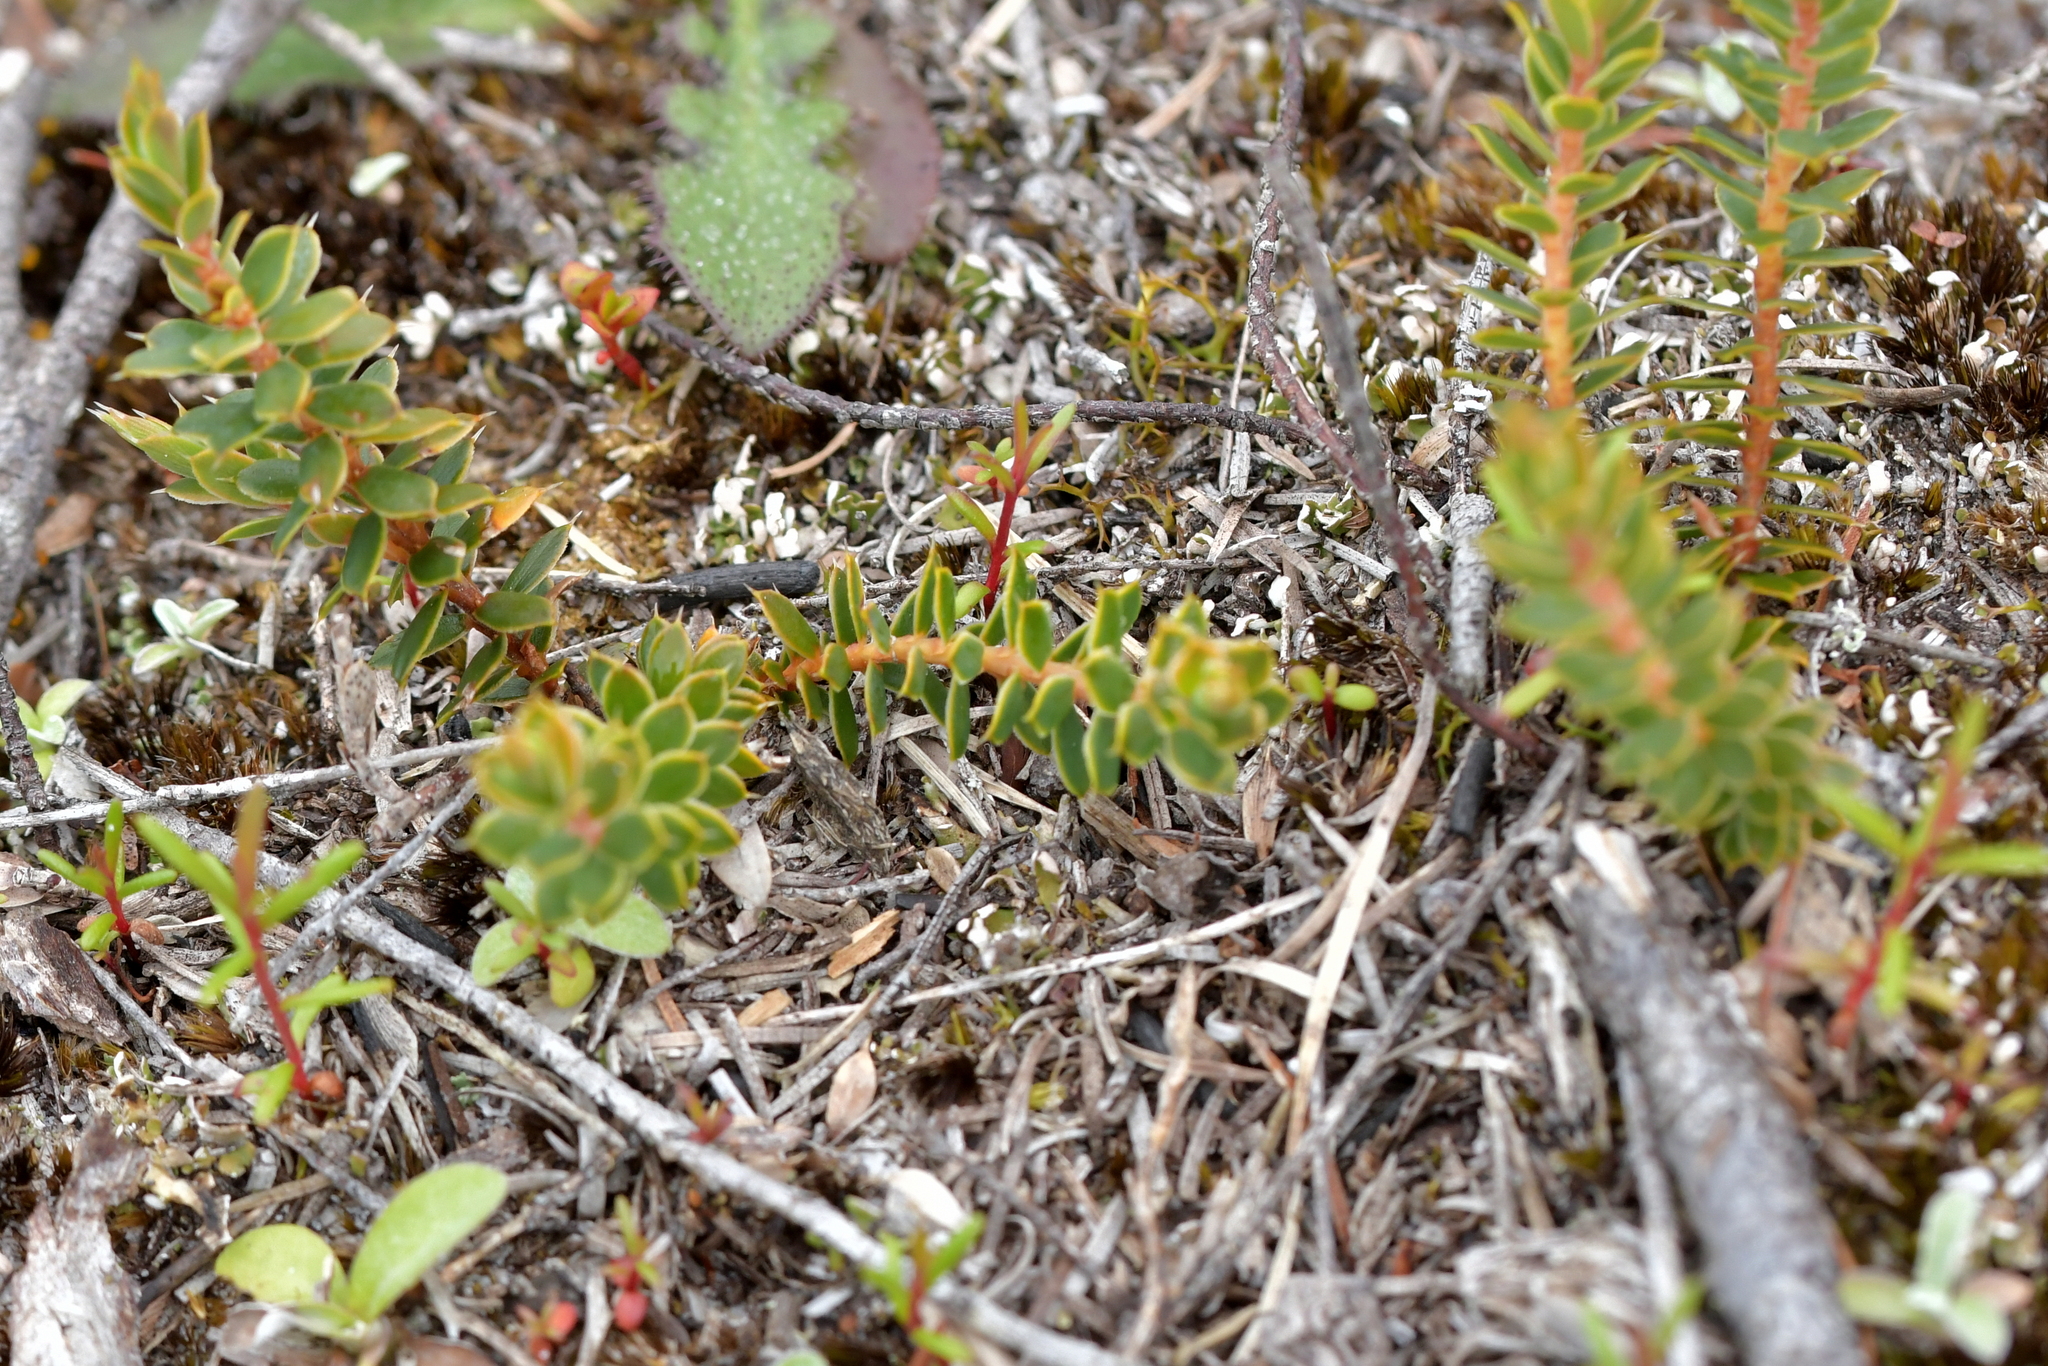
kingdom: Plantae
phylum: Tracheophyta
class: Magnoliopsida
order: Ericales
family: Ericaceae
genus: Styphelia
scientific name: Styphelia nesophila
